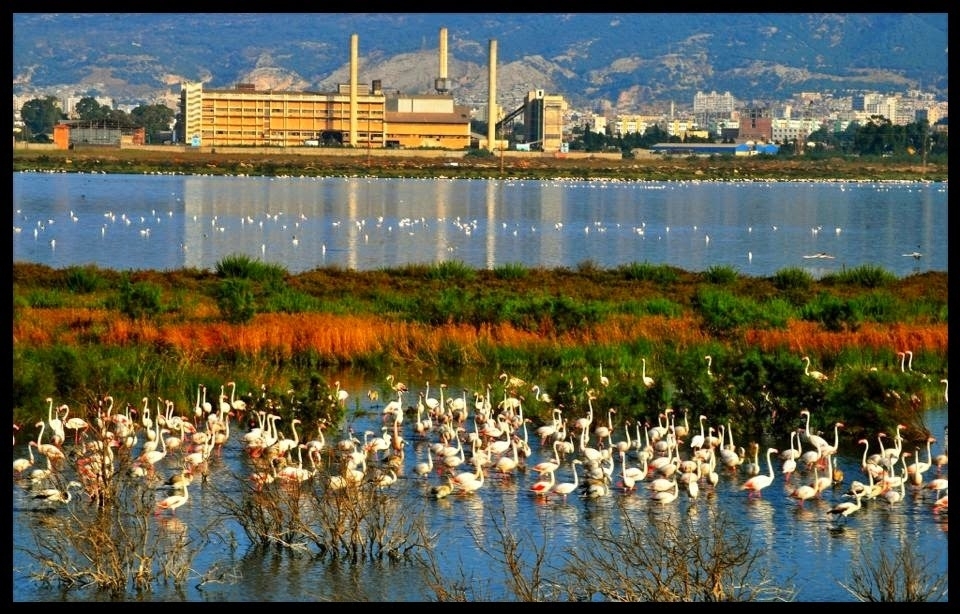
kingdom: Animalia
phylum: Chordata
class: Aves
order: Phoenicopteriformes
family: Phoenicopteridae
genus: Phoenicopterus
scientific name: Phoenicopterus roseus
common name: Greater flamingo
